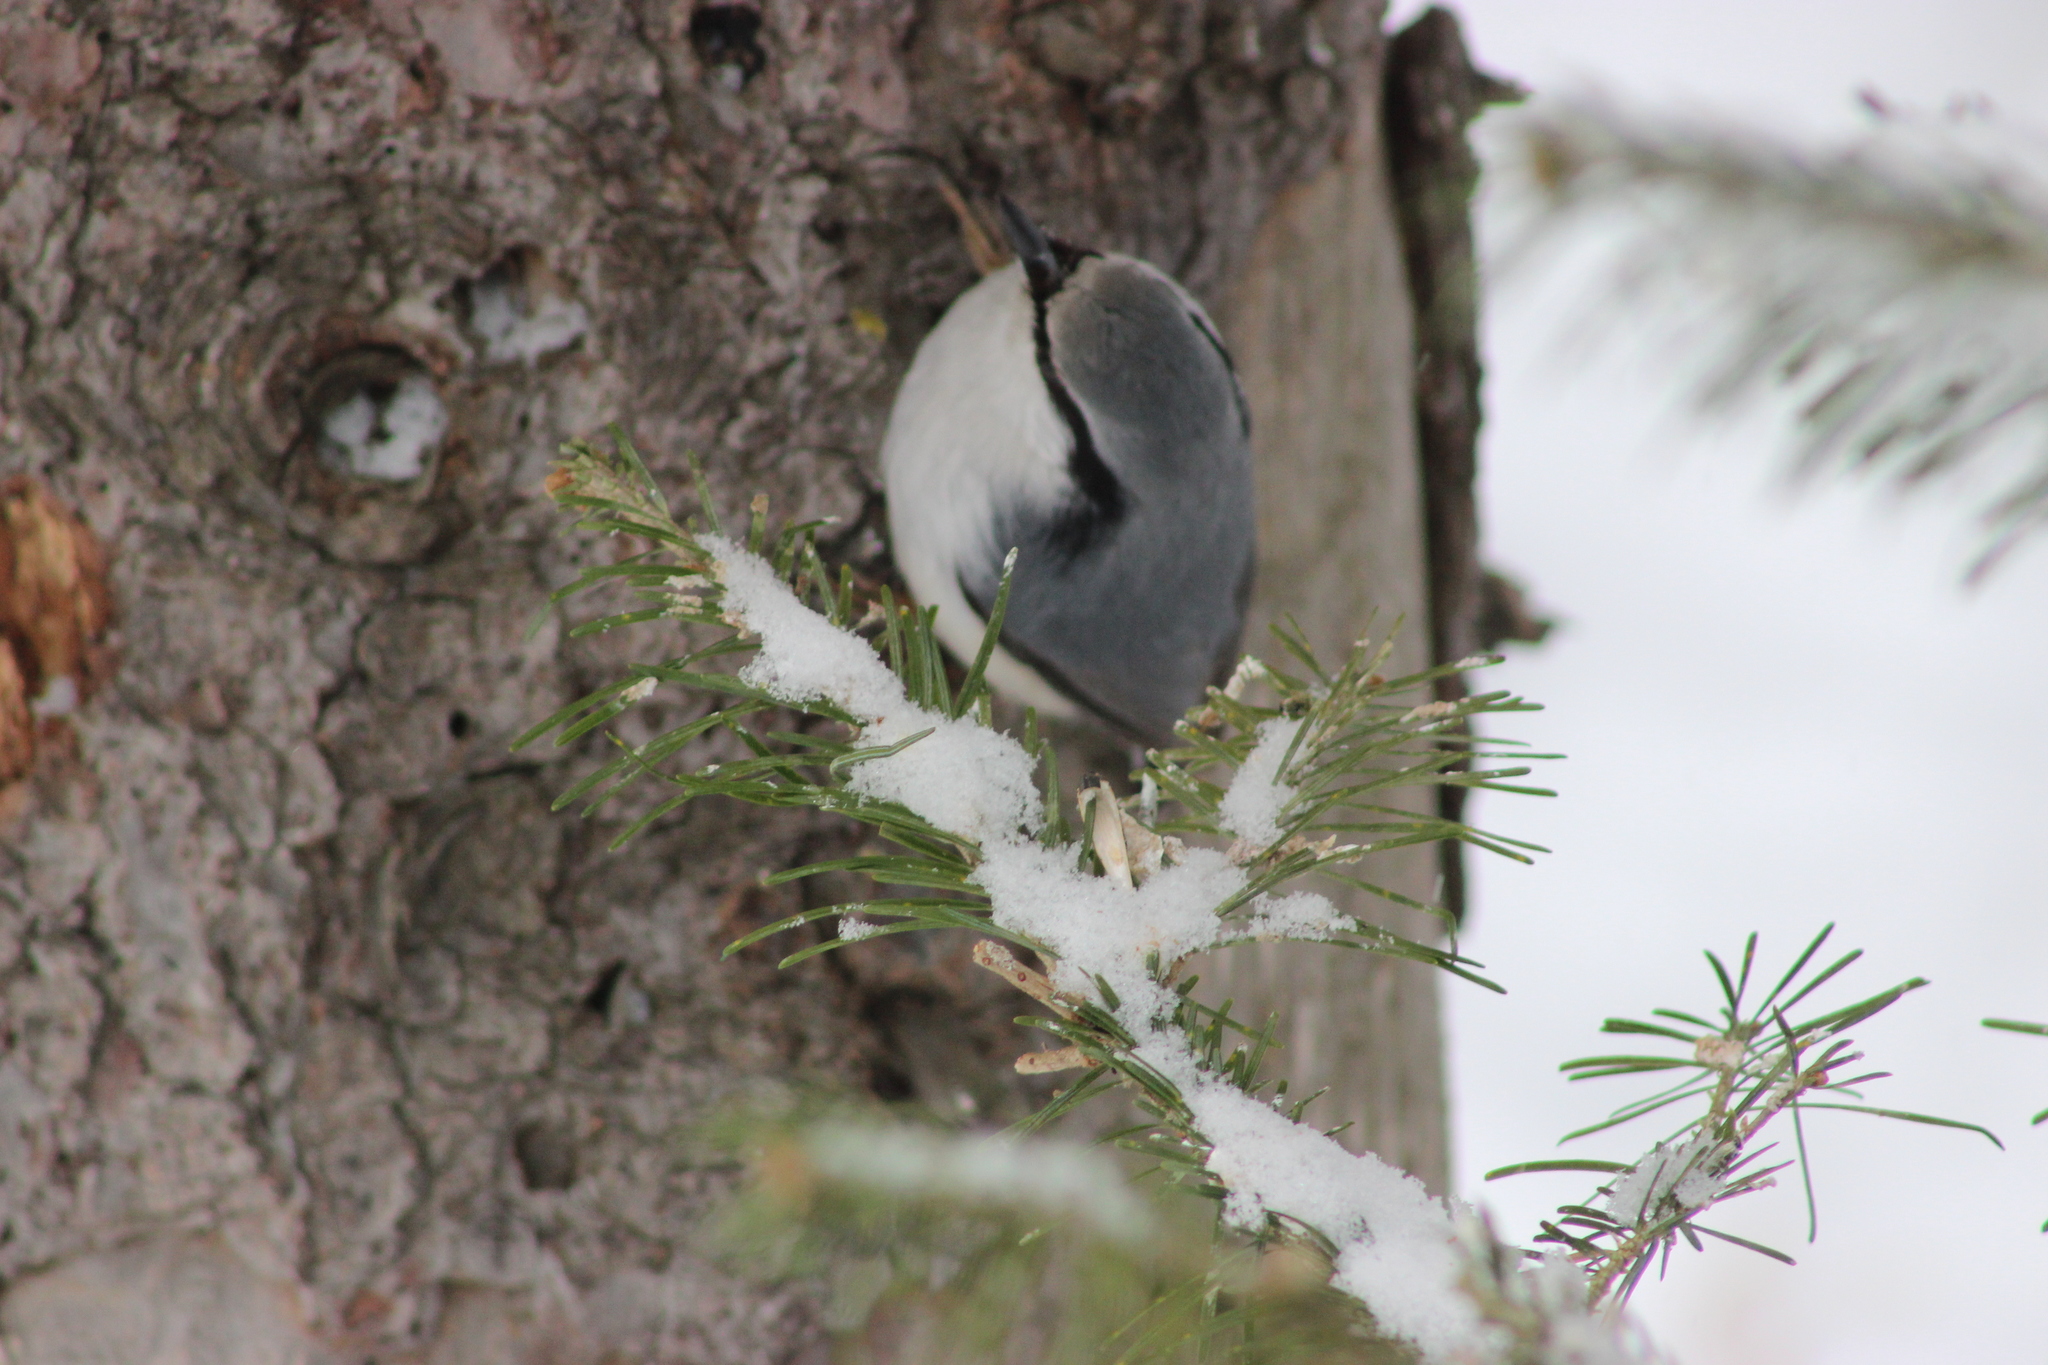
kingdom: Animalia
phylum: Chordata
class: Aves
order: Passeriformes
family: Sittidae
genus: Sitta
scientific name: Sitta europaea
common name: Eurasian nuthatch
